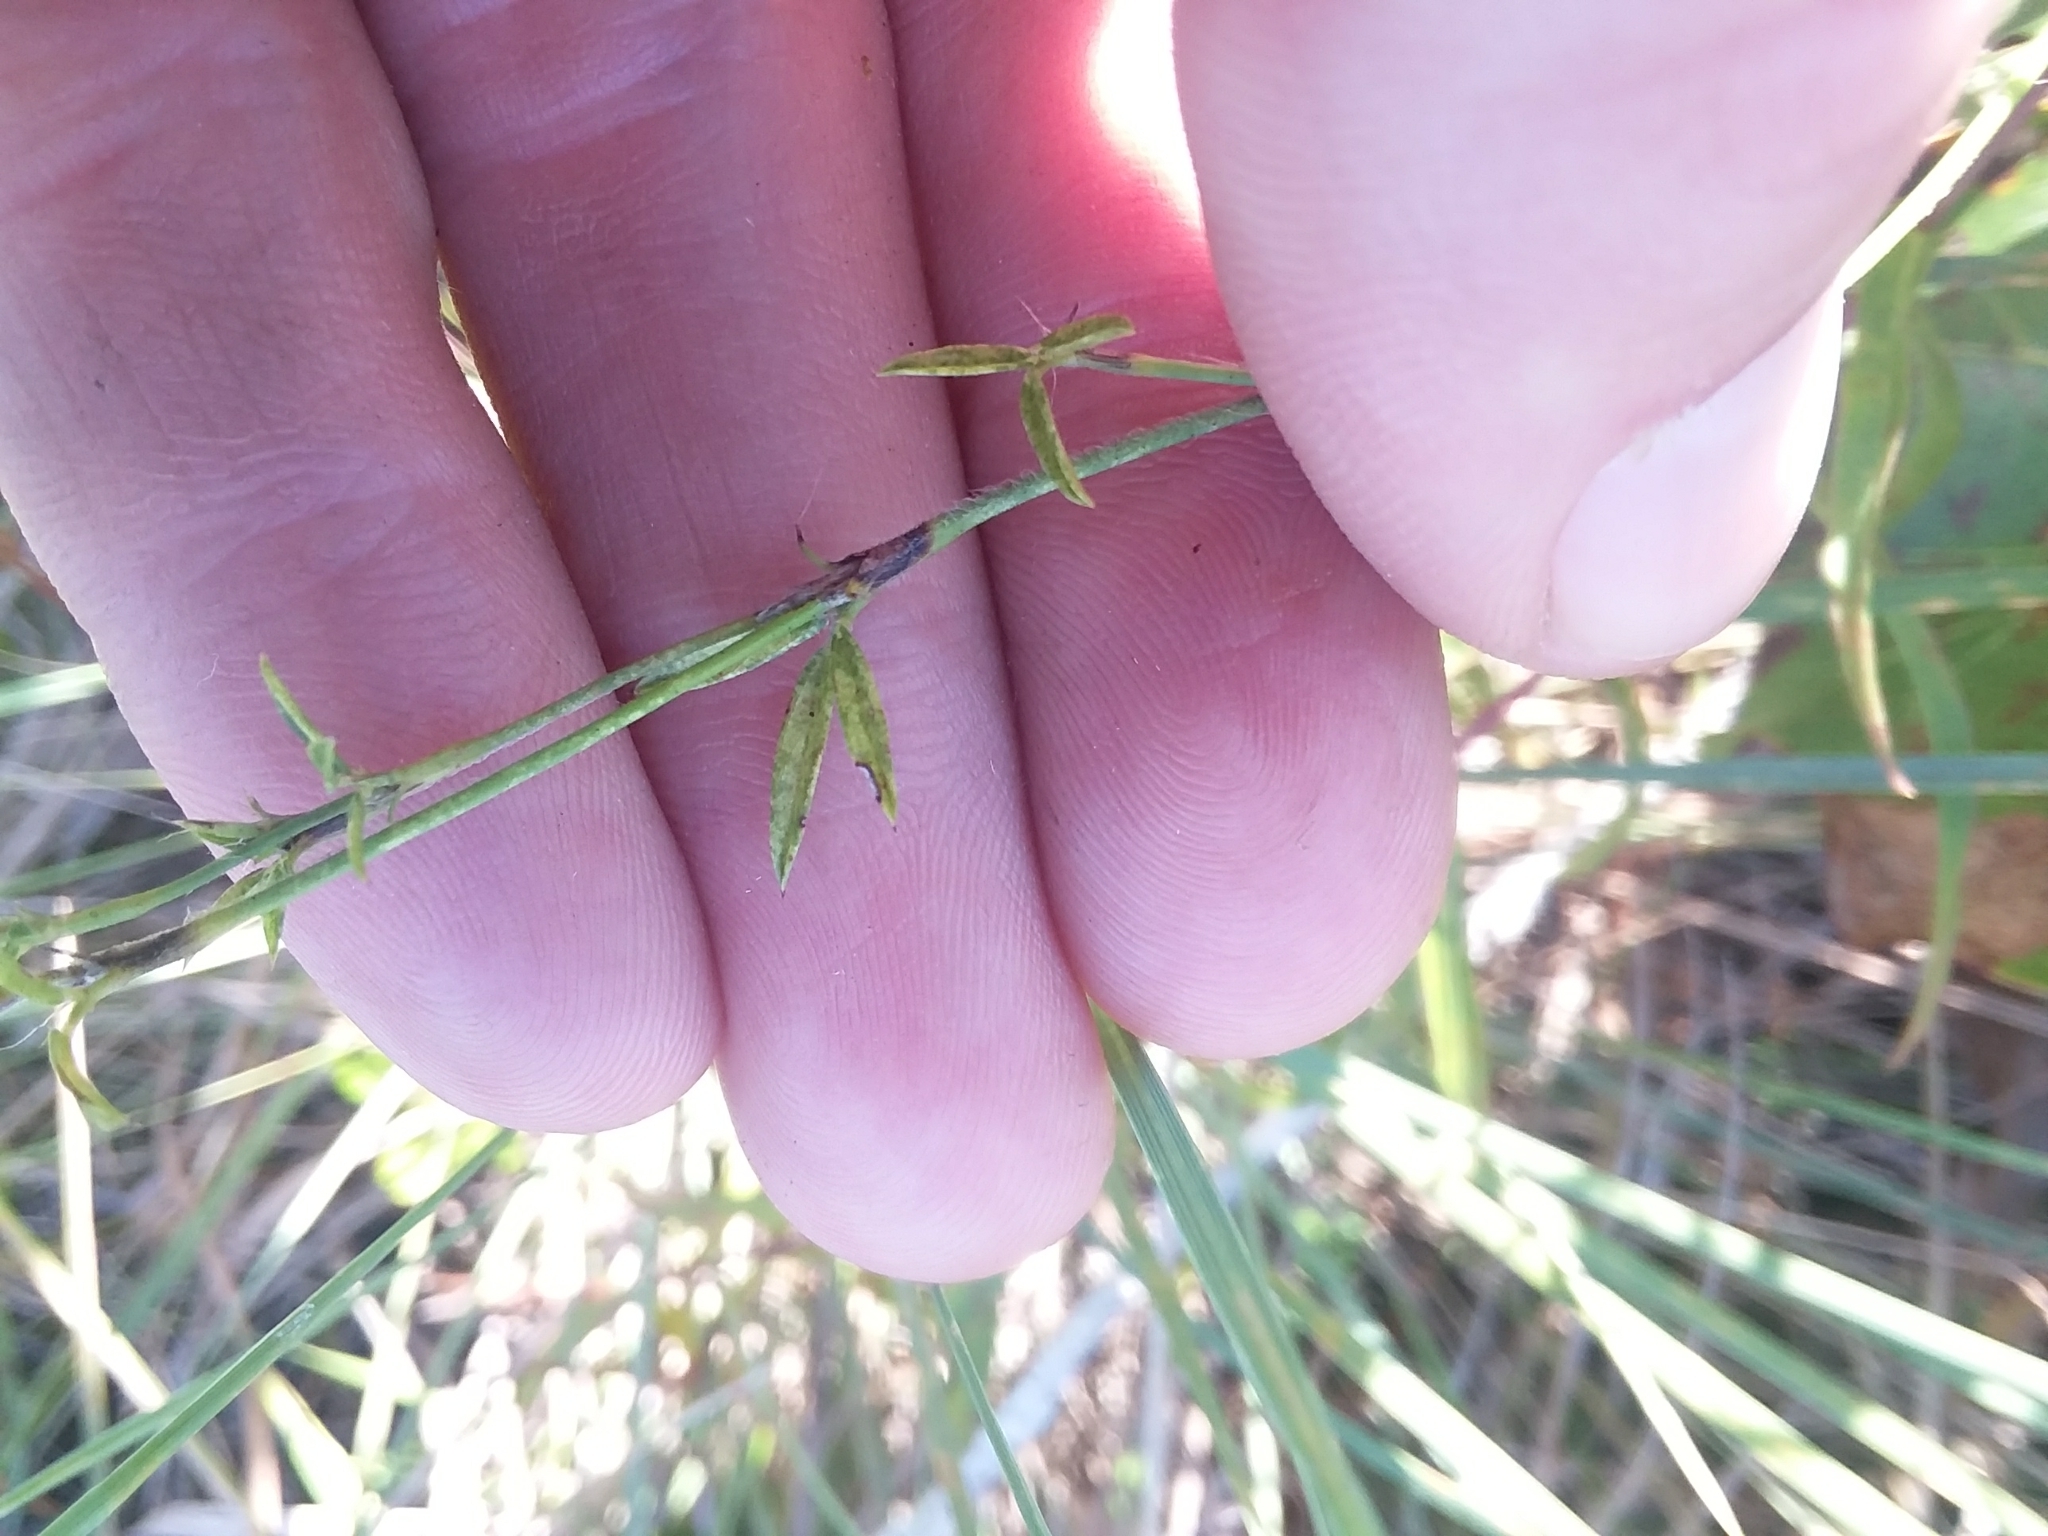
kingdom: Plantae
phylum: Tracheophyta
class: Magnoliopsida
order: Fabales
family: Fabaceae
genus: Stylosanthes
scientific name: Stylosanthes biflora
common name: Two-flower pencil-flower
